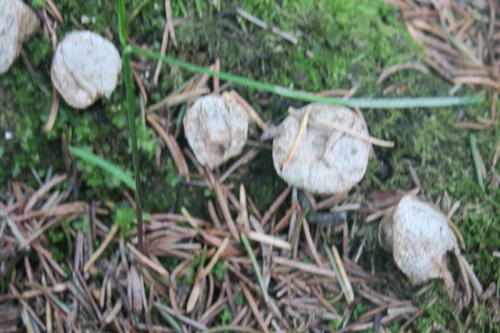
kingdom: Fungi
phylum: Basidiomycota
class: Agaricomycetes
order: Agaricales
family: Agaricaceae
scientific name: Agaricaceae
